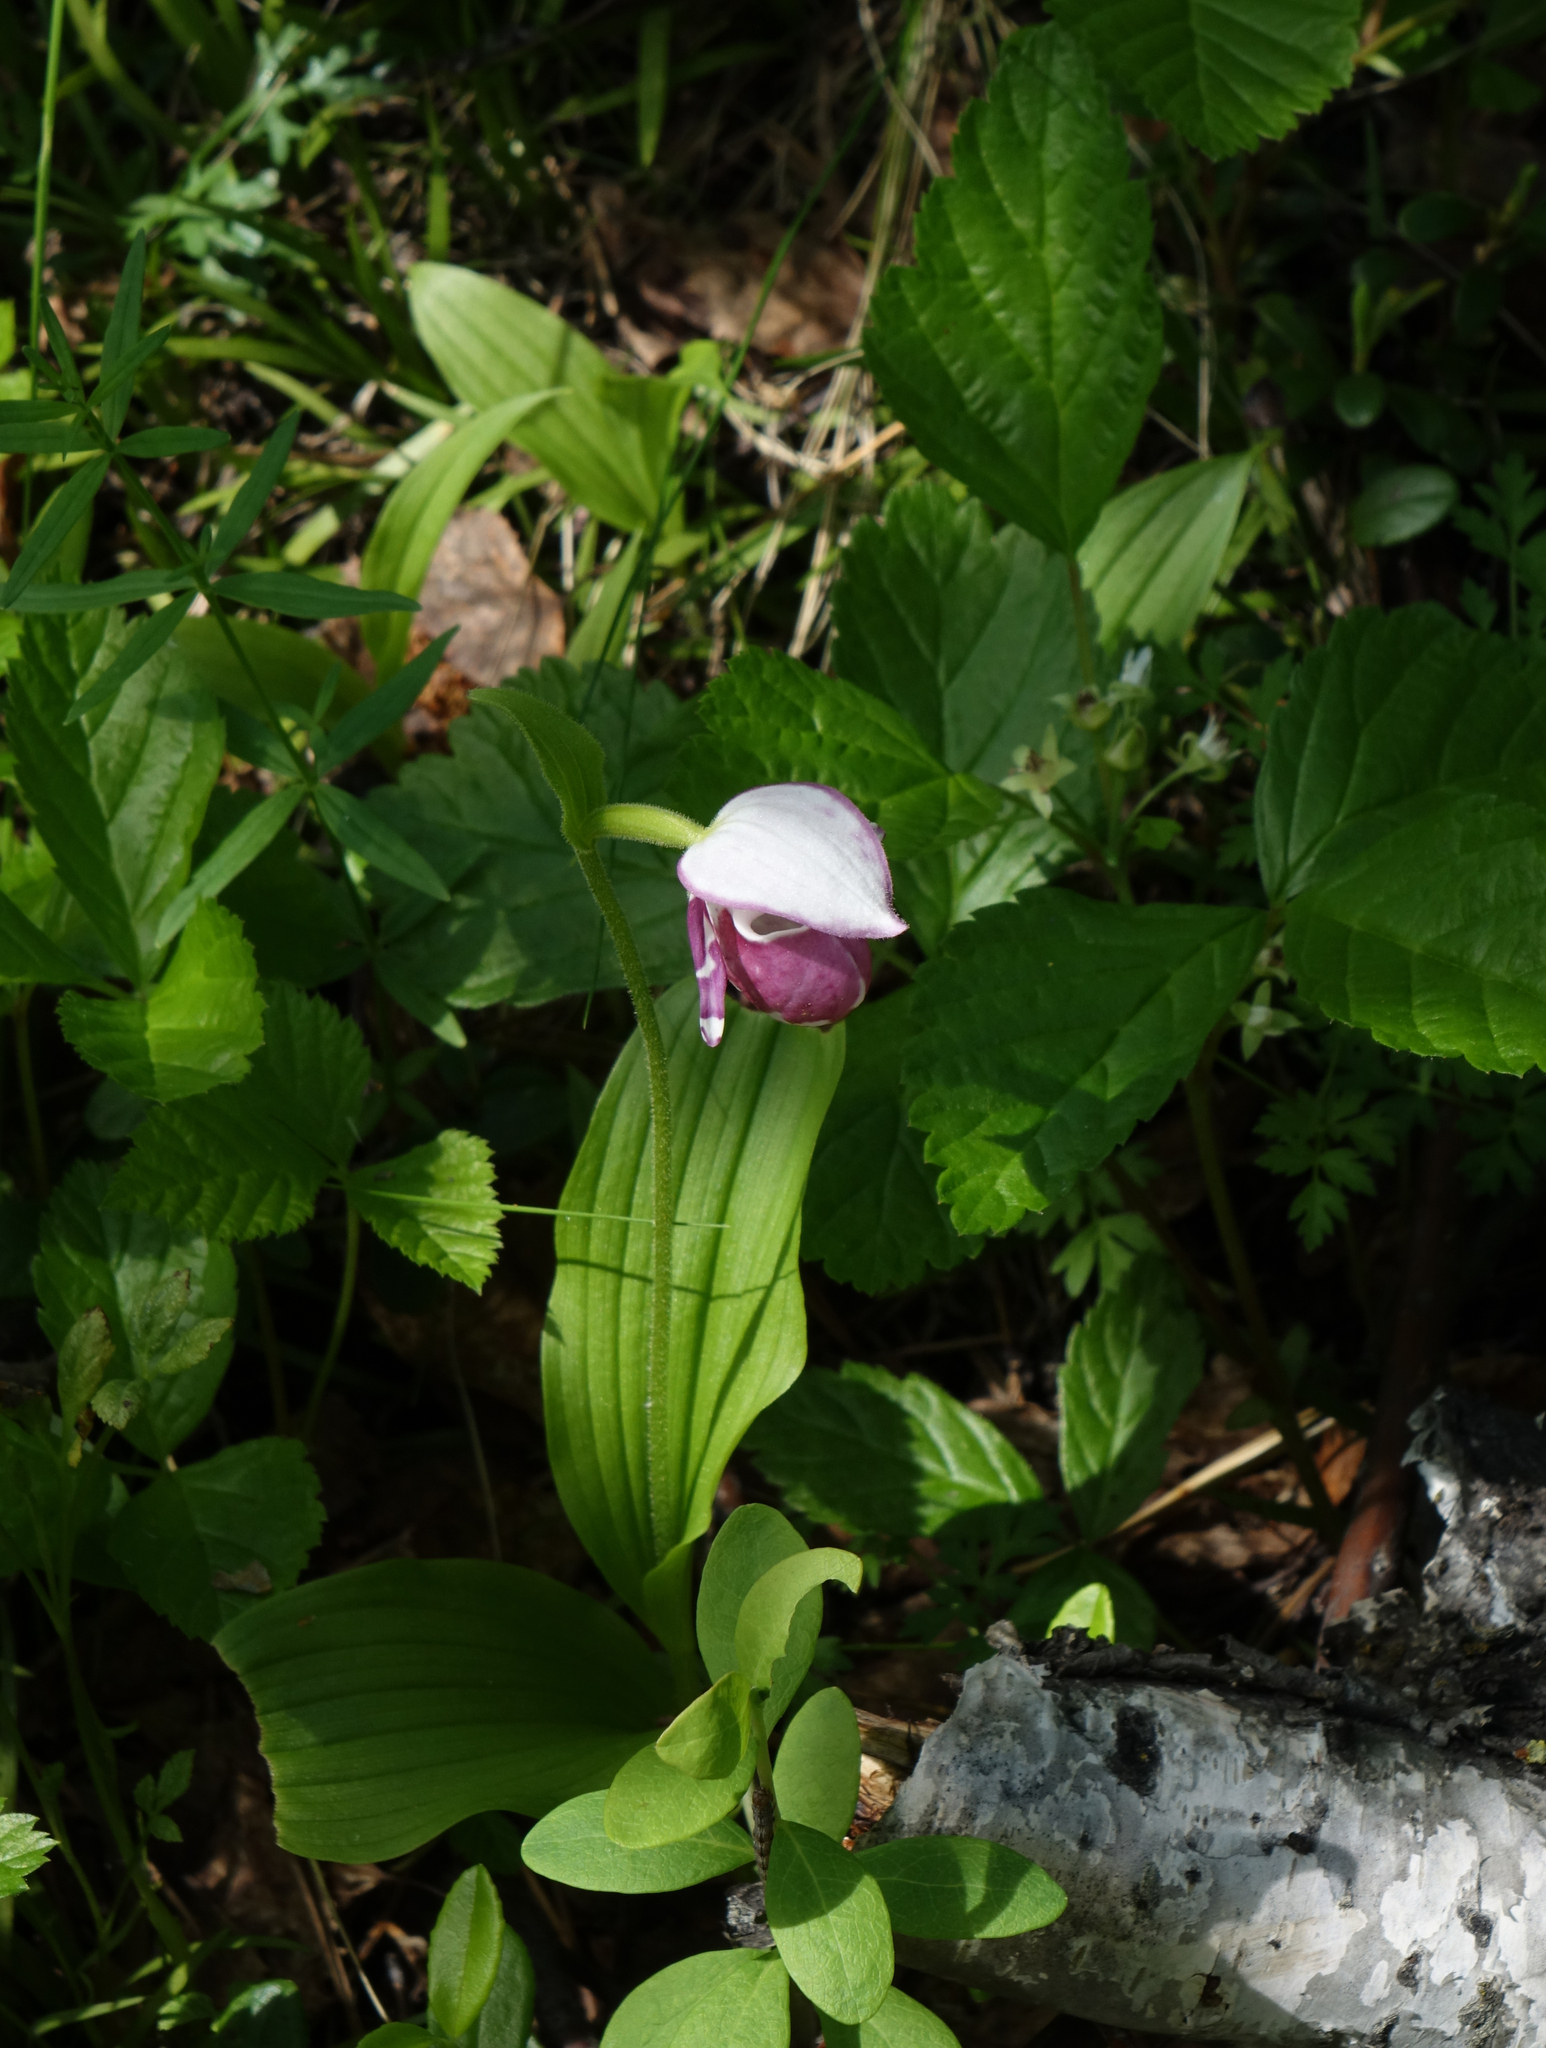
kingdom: Plantae
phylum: Tracheophyta
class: Liliopsida
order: Asparagales
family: Orchidaceae
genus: Cypripedium
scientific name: Cypripedium guttatum
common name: Pink lady slipper
